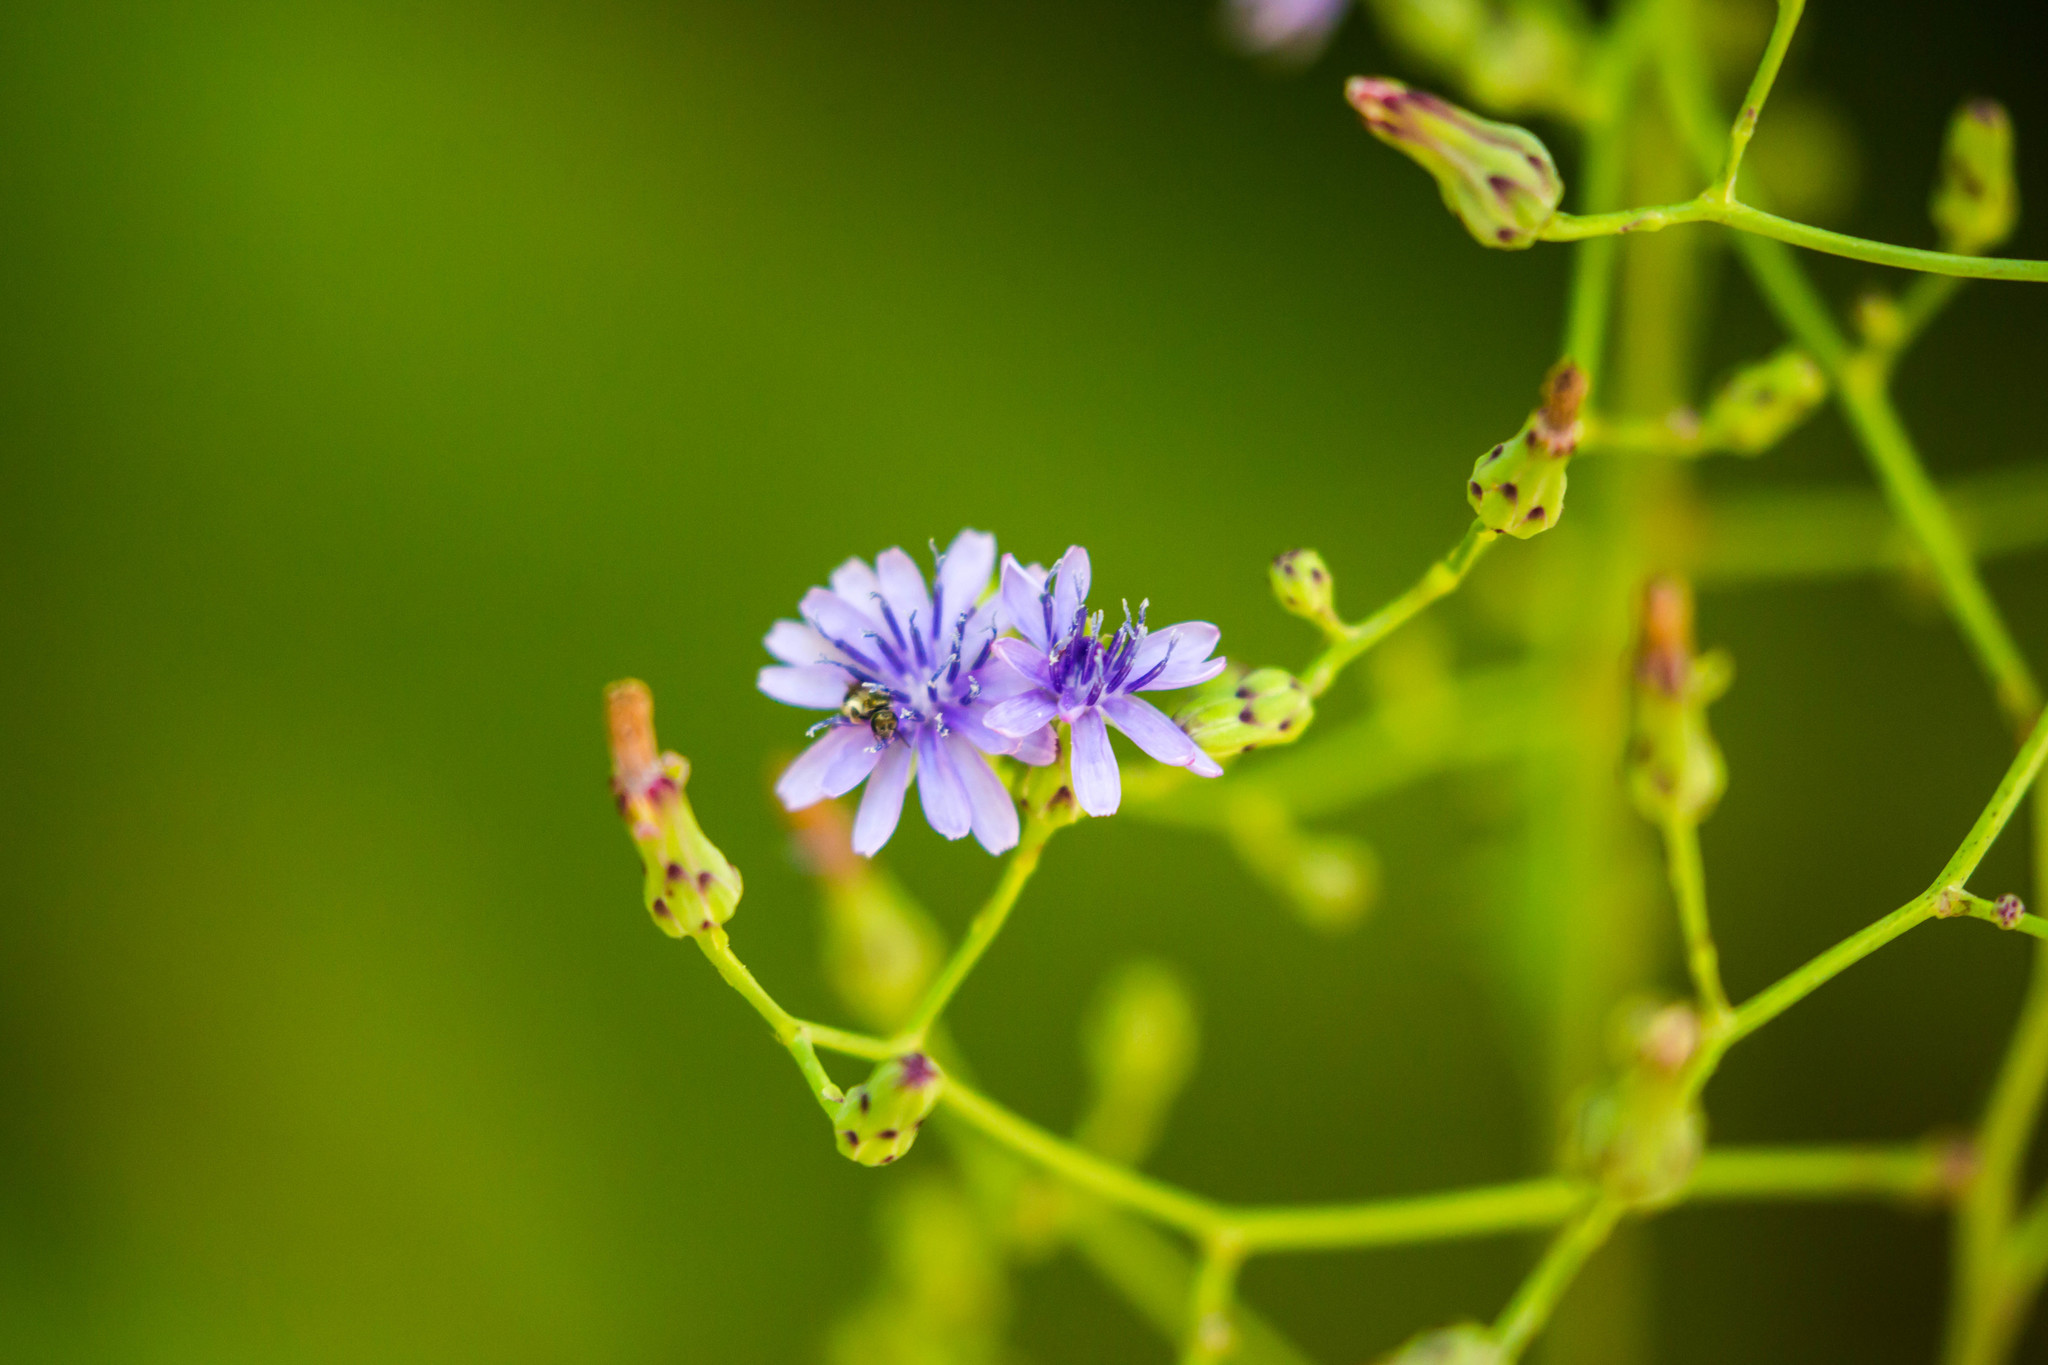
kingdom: Plantae
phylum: Tracheophyta
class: Magnoliopsida
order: Asterales
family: Asteraceae
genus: Lactuca
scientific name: Lactuca floridana
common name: Woodland lettuce
